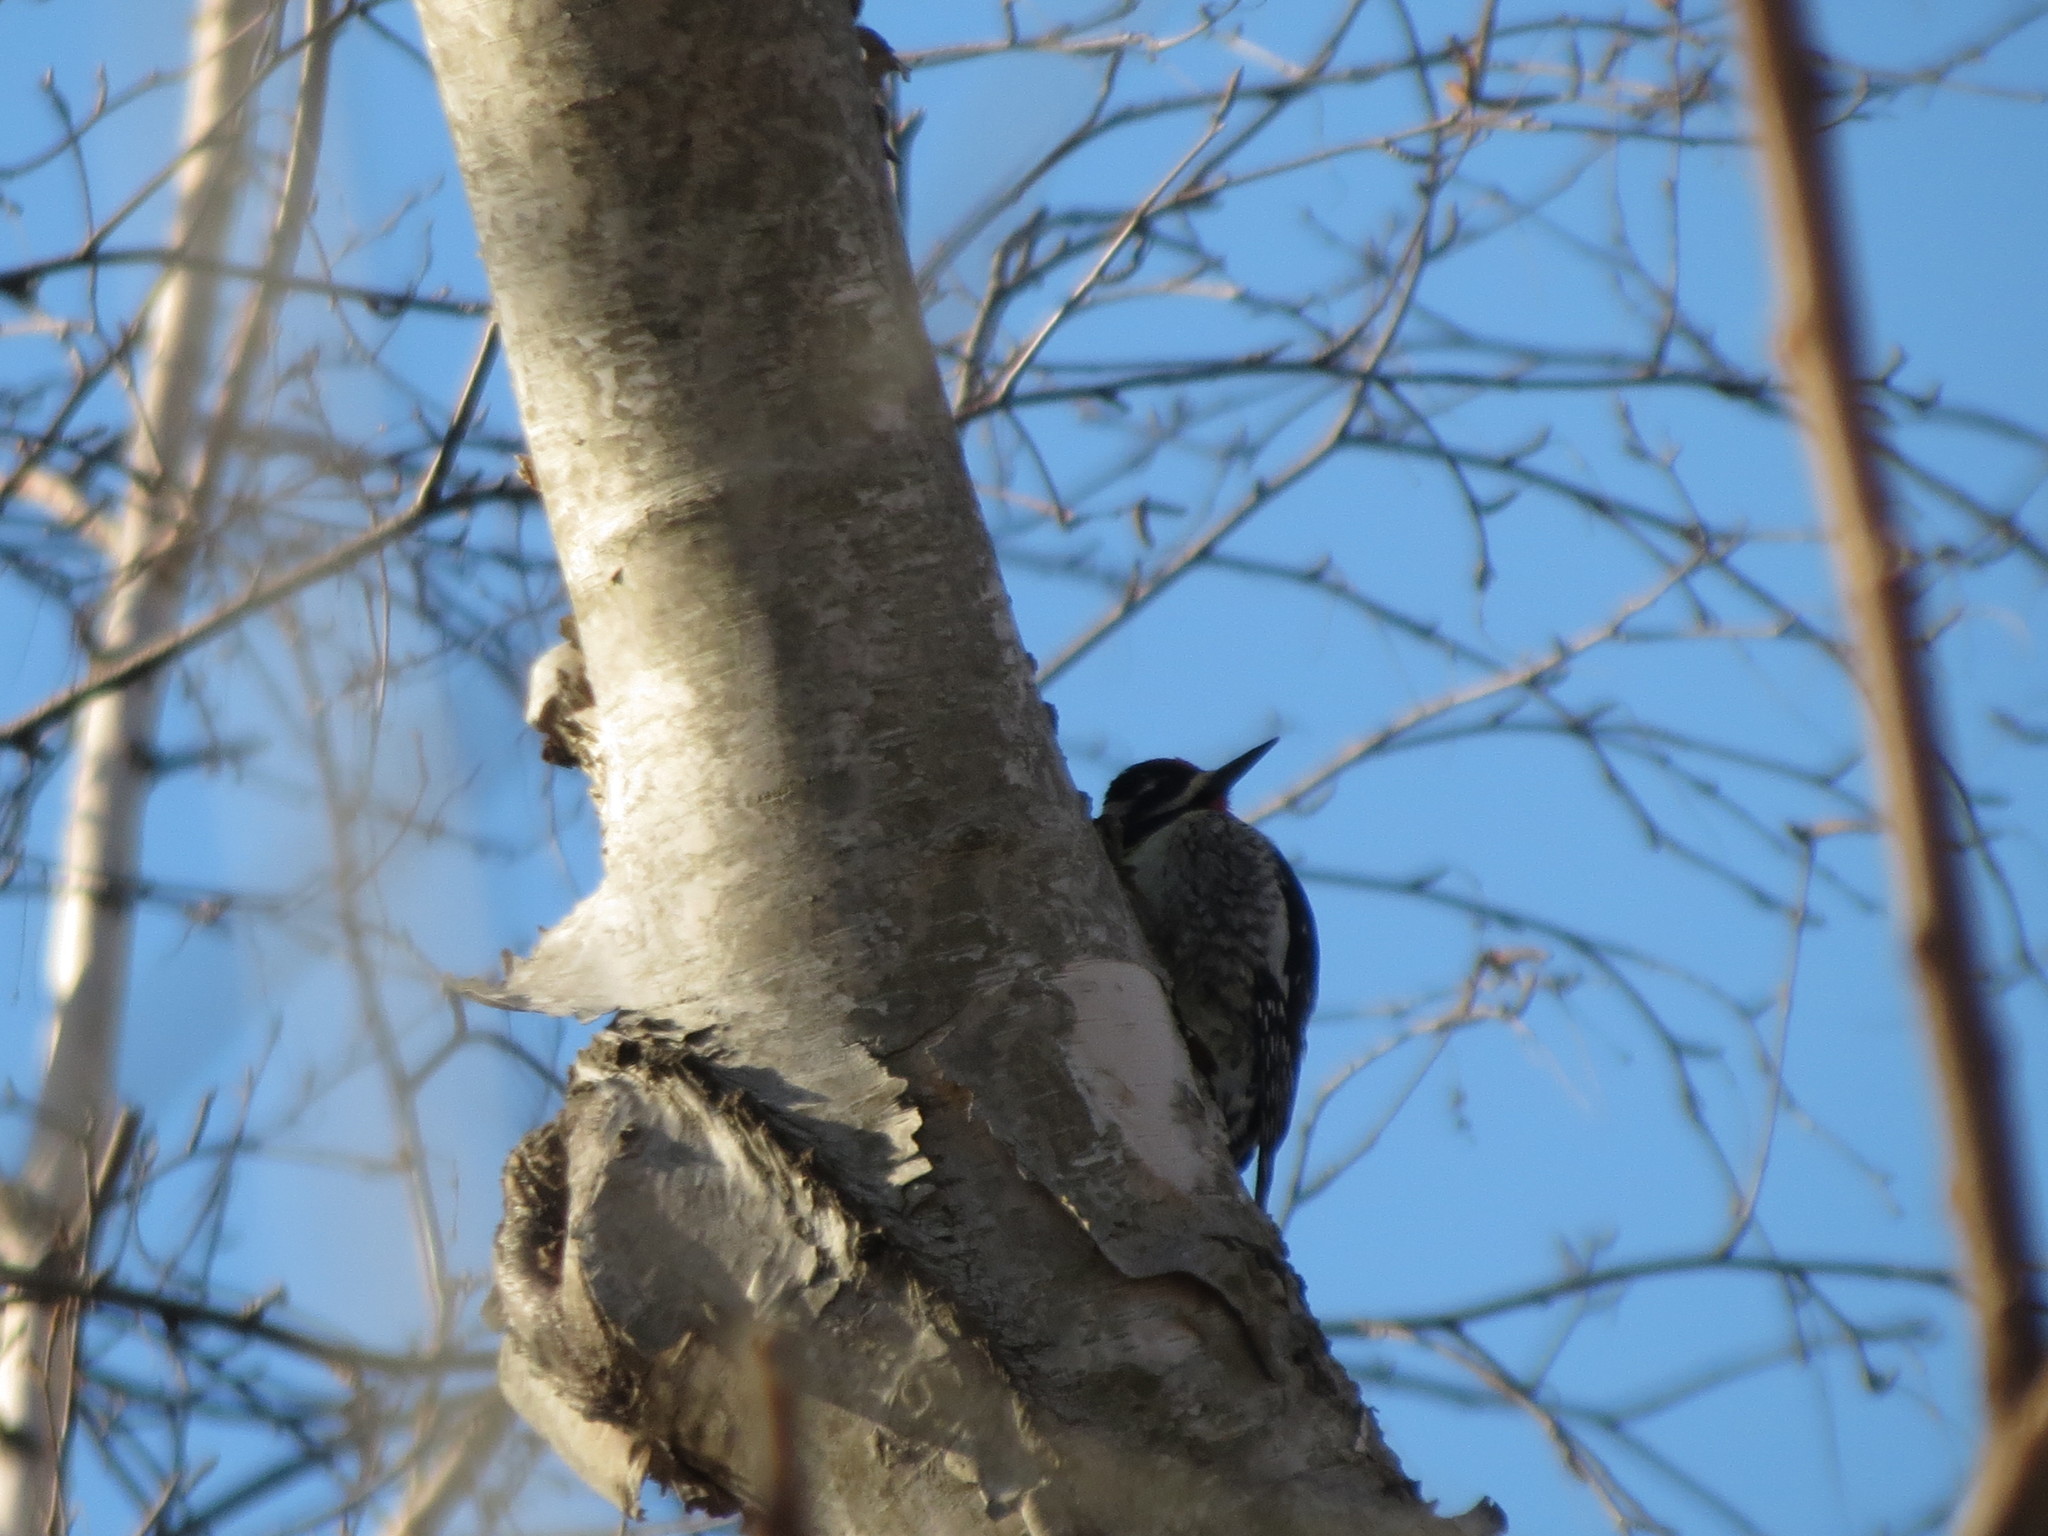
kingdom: Animalia
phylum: Chordata
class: Aves
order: Piciformes
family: Picidae
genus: Sphyrapicus
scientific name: Sphyrapicus varius
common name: Yellow-bellied sapsucker
